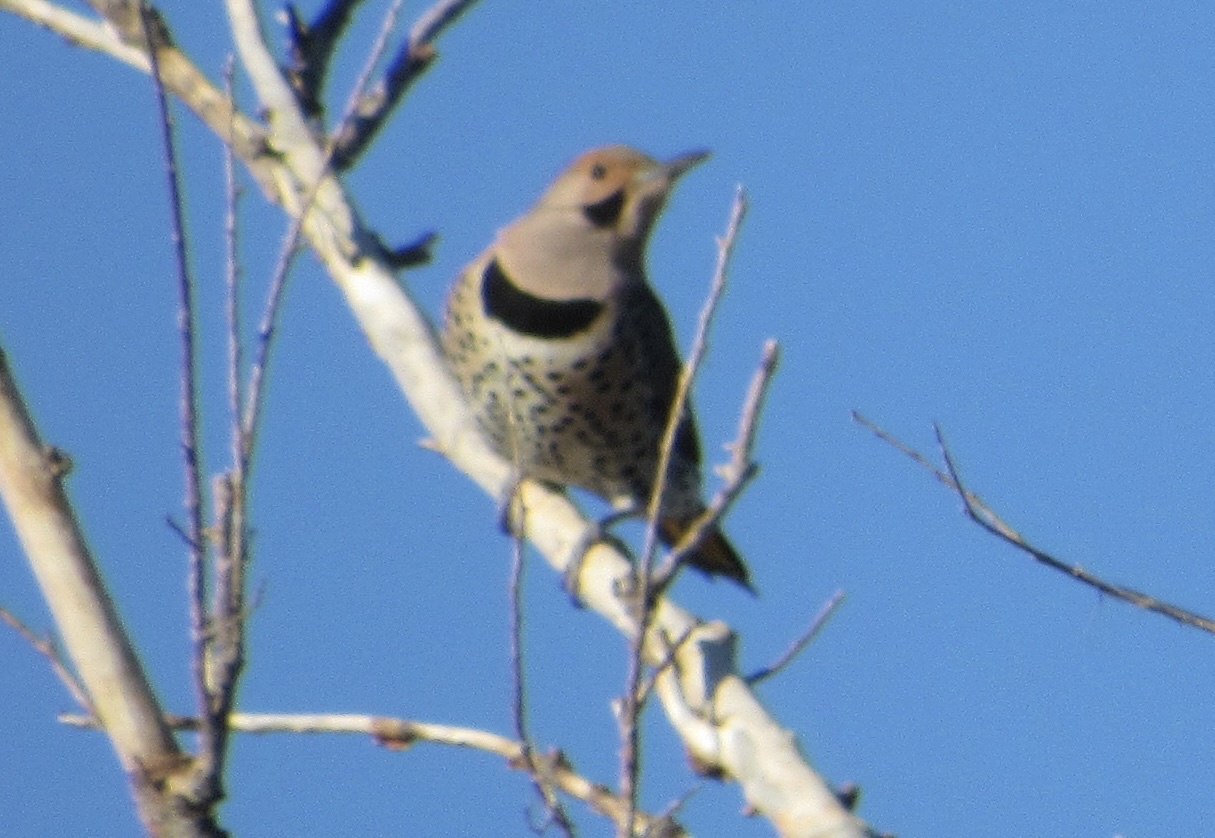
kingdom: Animalia
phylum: Chordata
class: Aves
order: Piciformes
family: Picidae
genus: Colaptes
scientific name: Colaptes auratus
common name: Northern flicker
